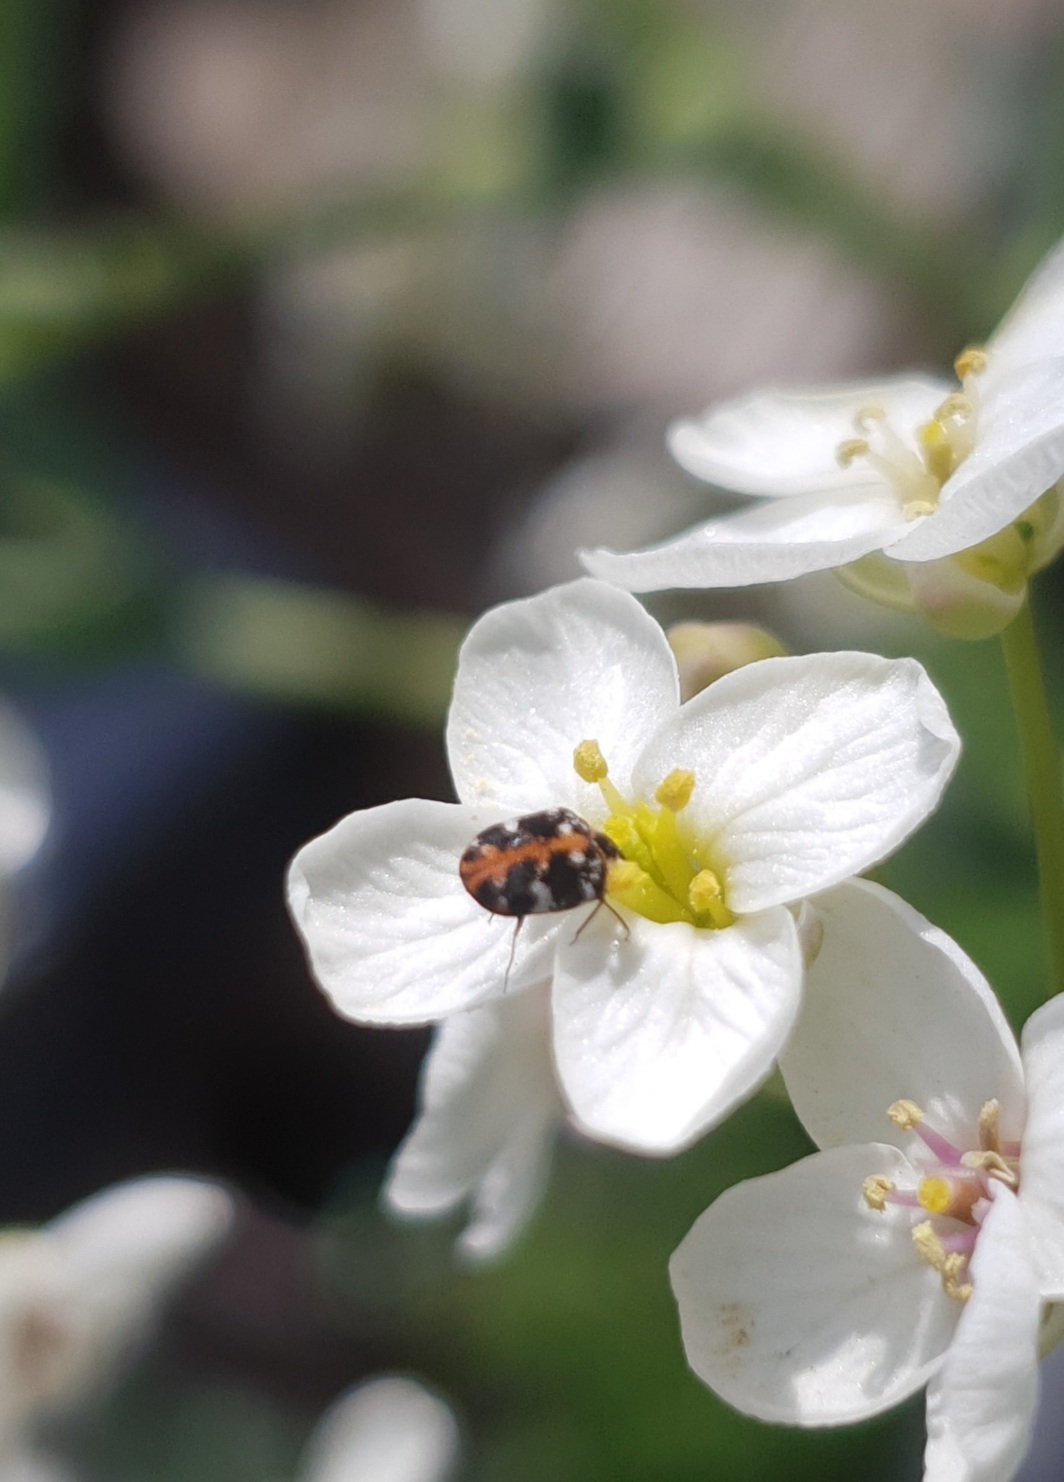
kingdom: Animalia
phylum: Arthropoda
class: Insecta
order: Coleoptera
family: Dermestidae
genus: Anthrenus
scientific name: Anthrenus scrophulariae
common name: Buffalo carpet beetle
